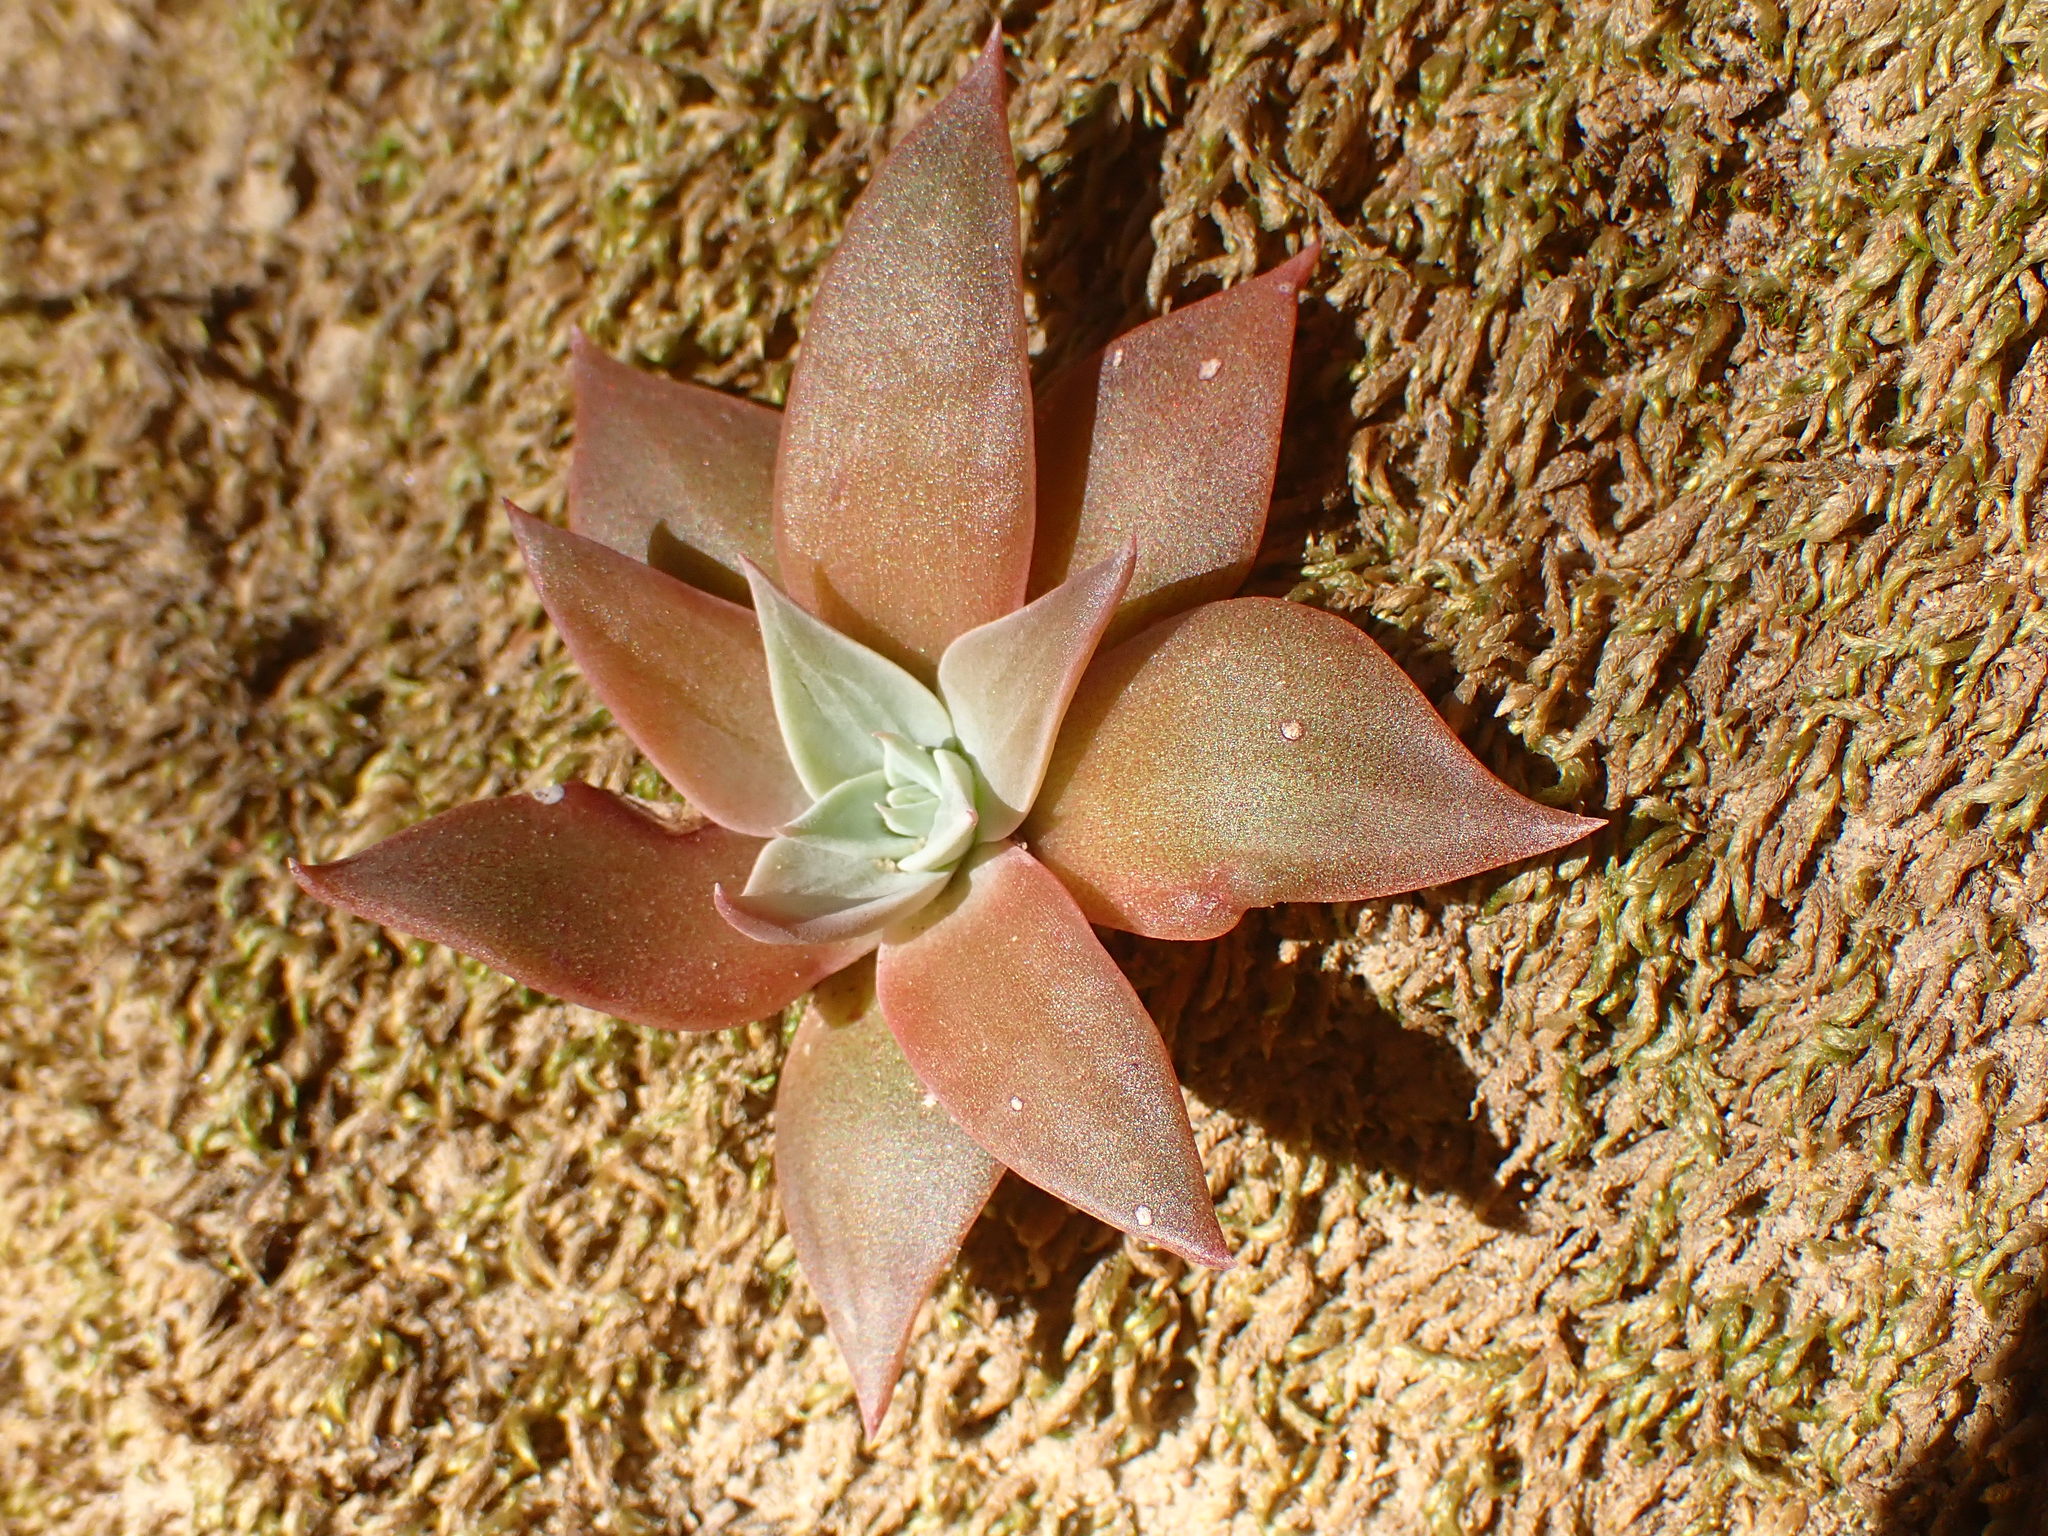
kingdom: Plantae
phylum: Tracheophyta
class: Magnoliopsida
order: Saxifragales
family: Crassulaceae
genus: Dudleya
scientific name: Dudleya cymosa
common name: Canyon dudleya
